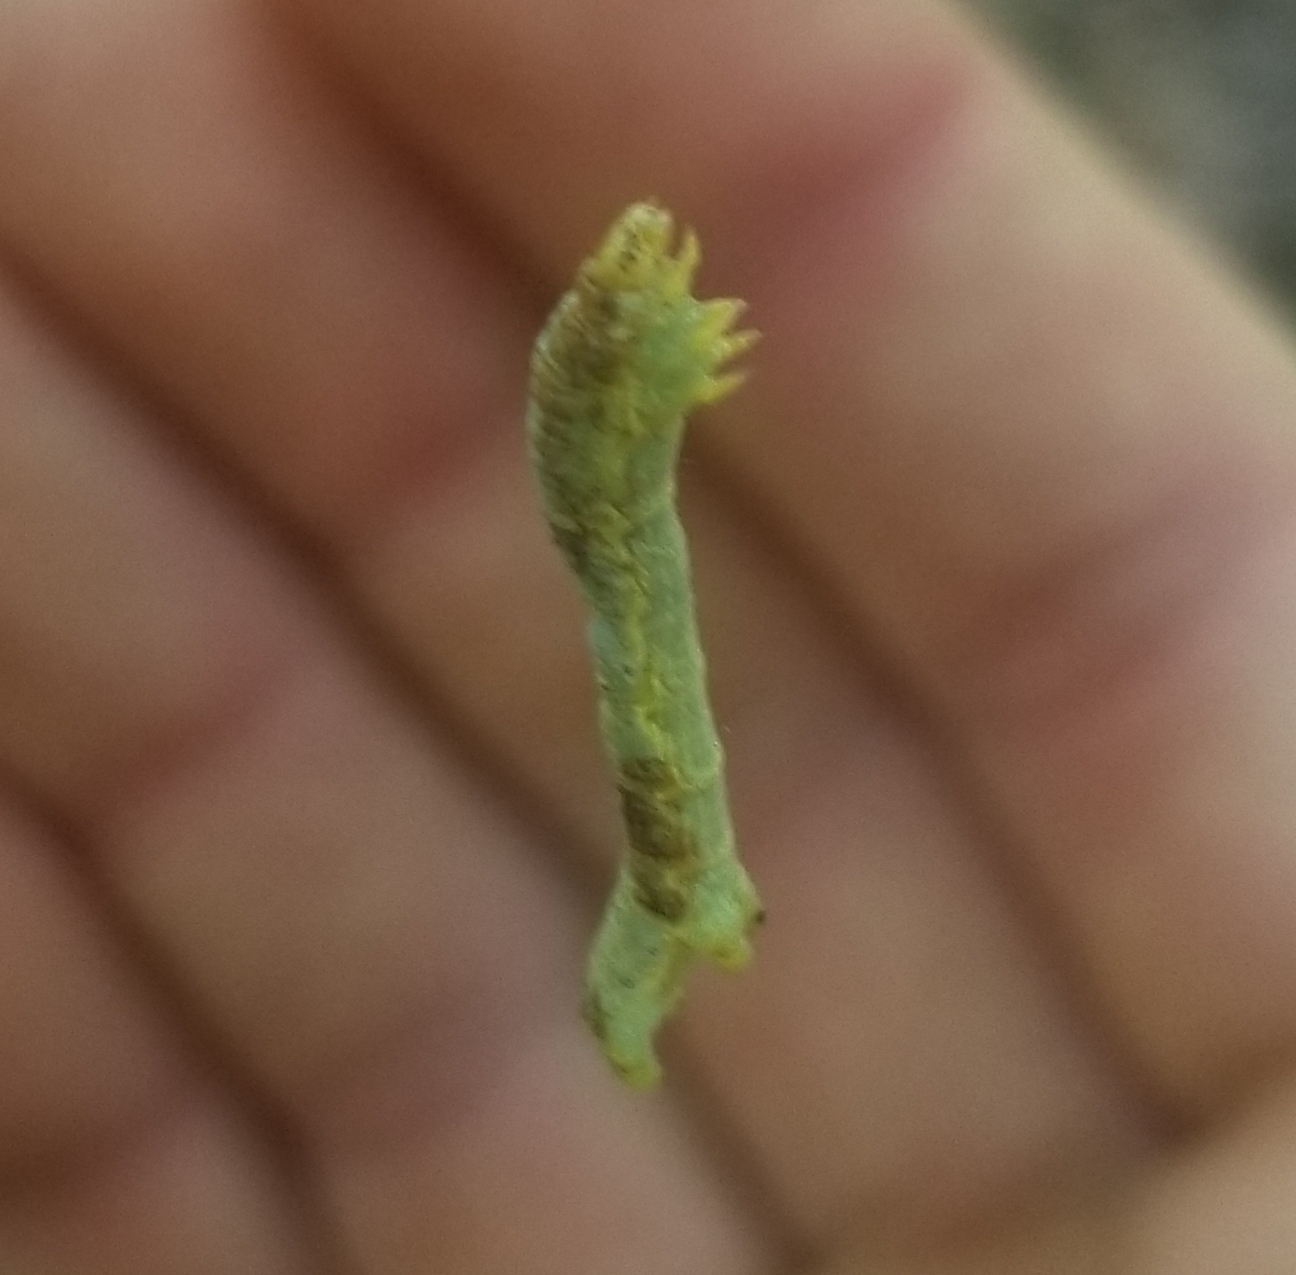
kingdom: Animalia
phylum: Arthropoda
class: Insecta
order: Lepidoptera
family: Geometridae
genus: Epimecis
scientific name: Epimecis hortaria
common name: Tulip-tree beauty
